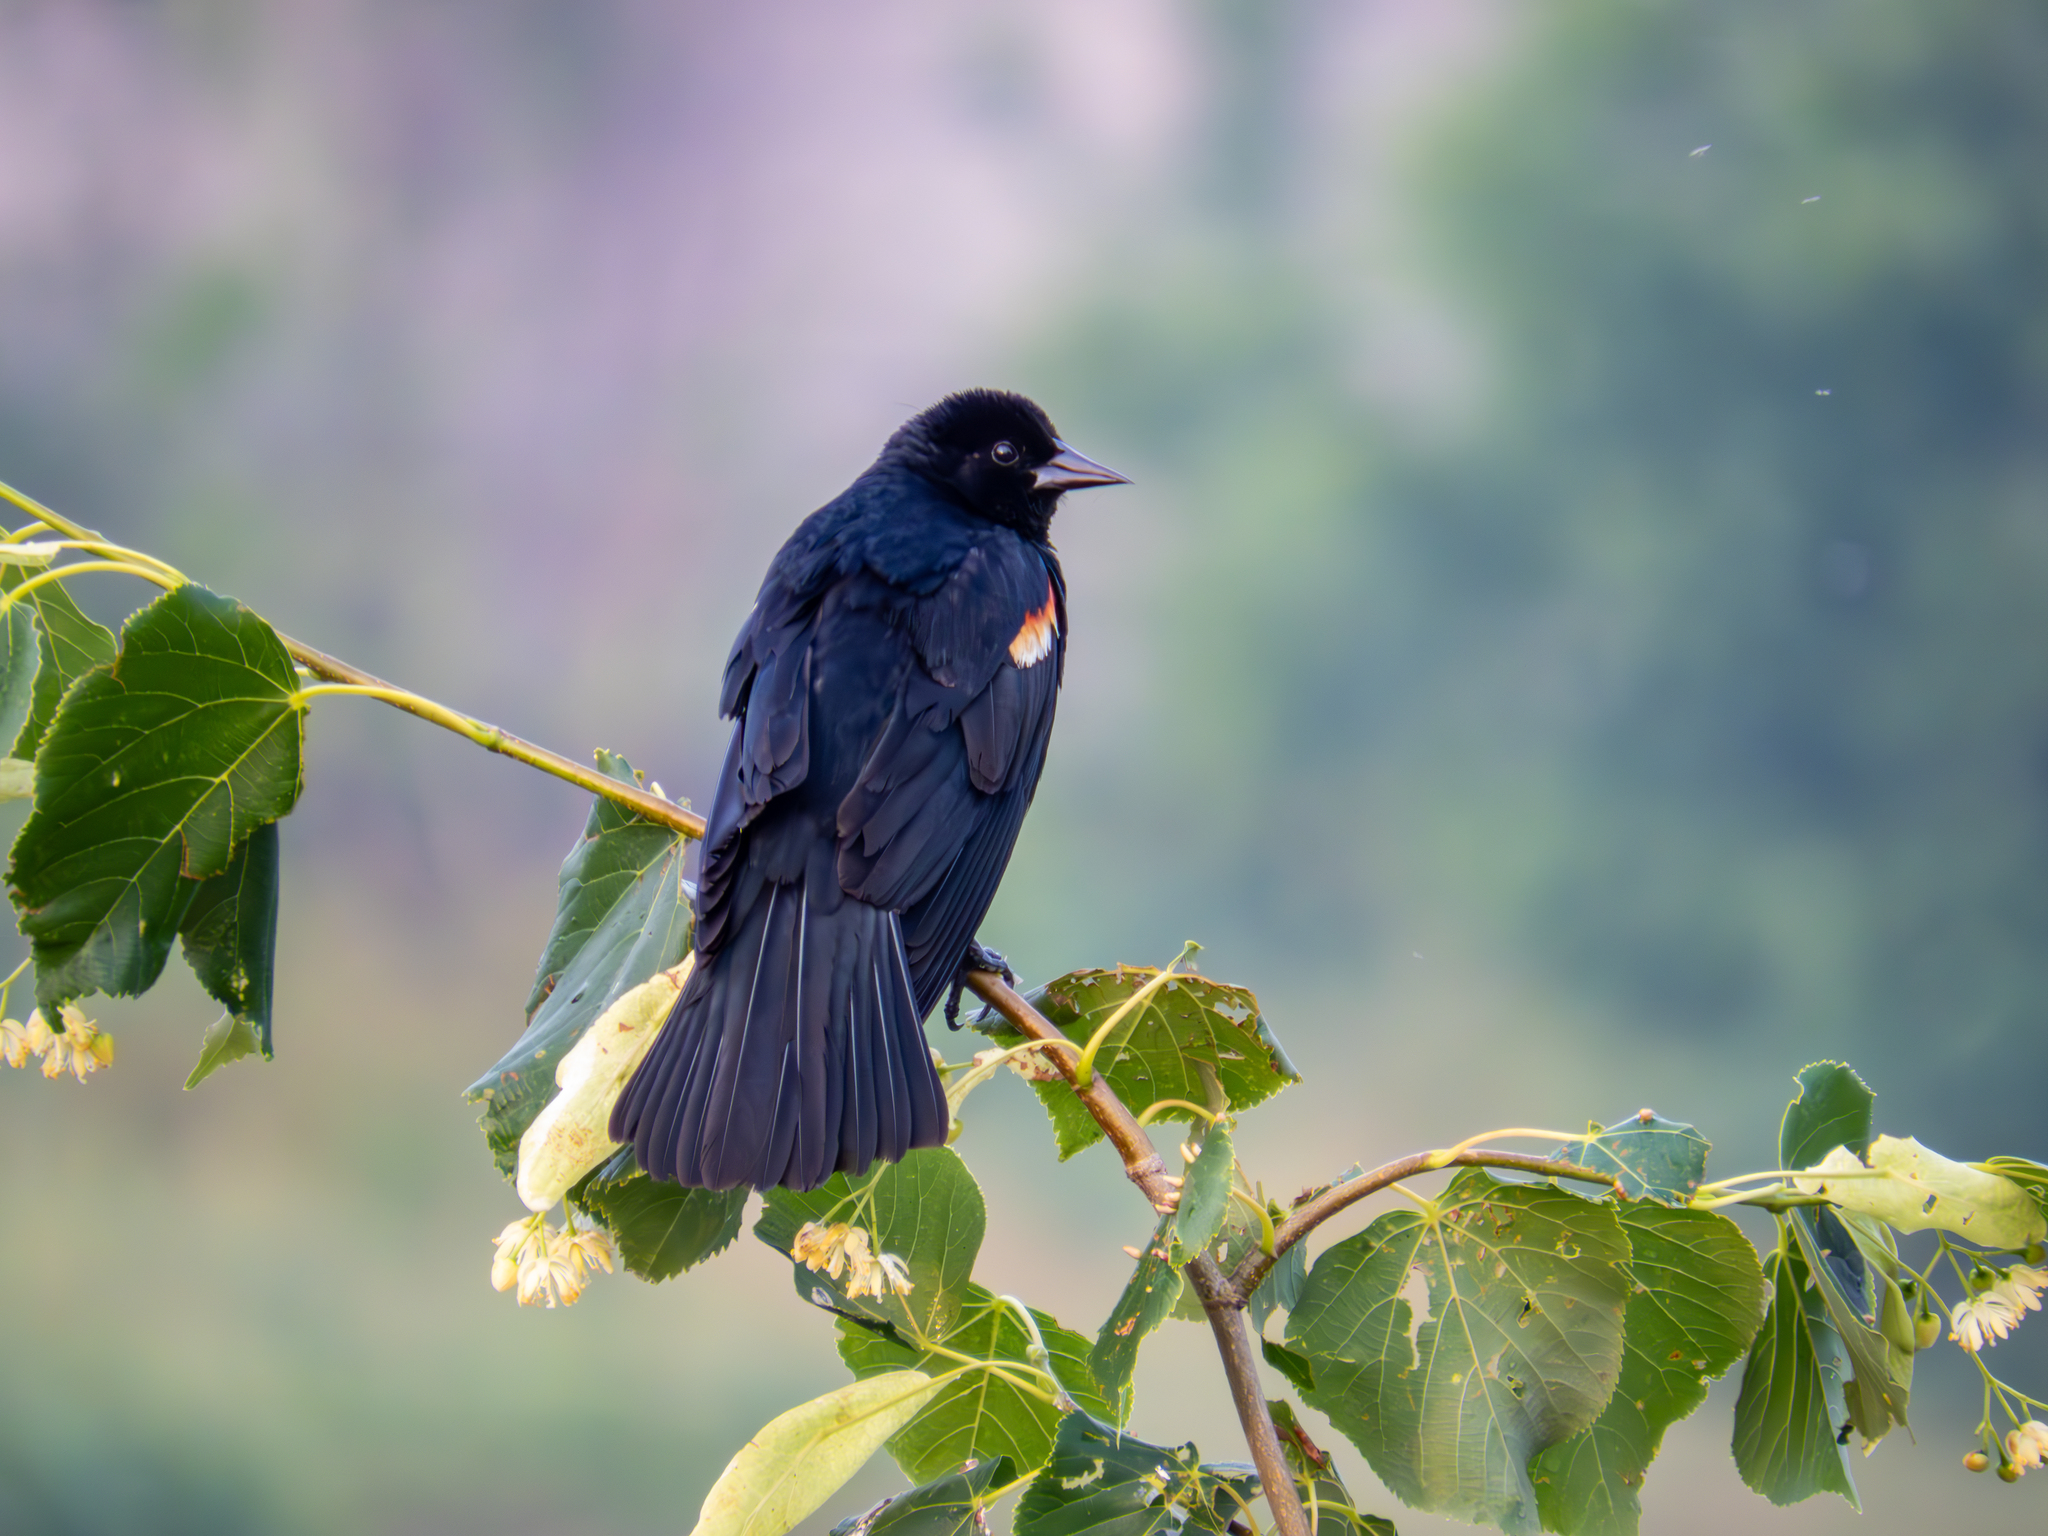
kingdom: Animalia
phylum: Chordata
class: Aves
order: Passeriformes
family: Icteridae
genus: Agelaius
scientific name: Agelaius phoeniceus
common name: Red-winged blackbird
